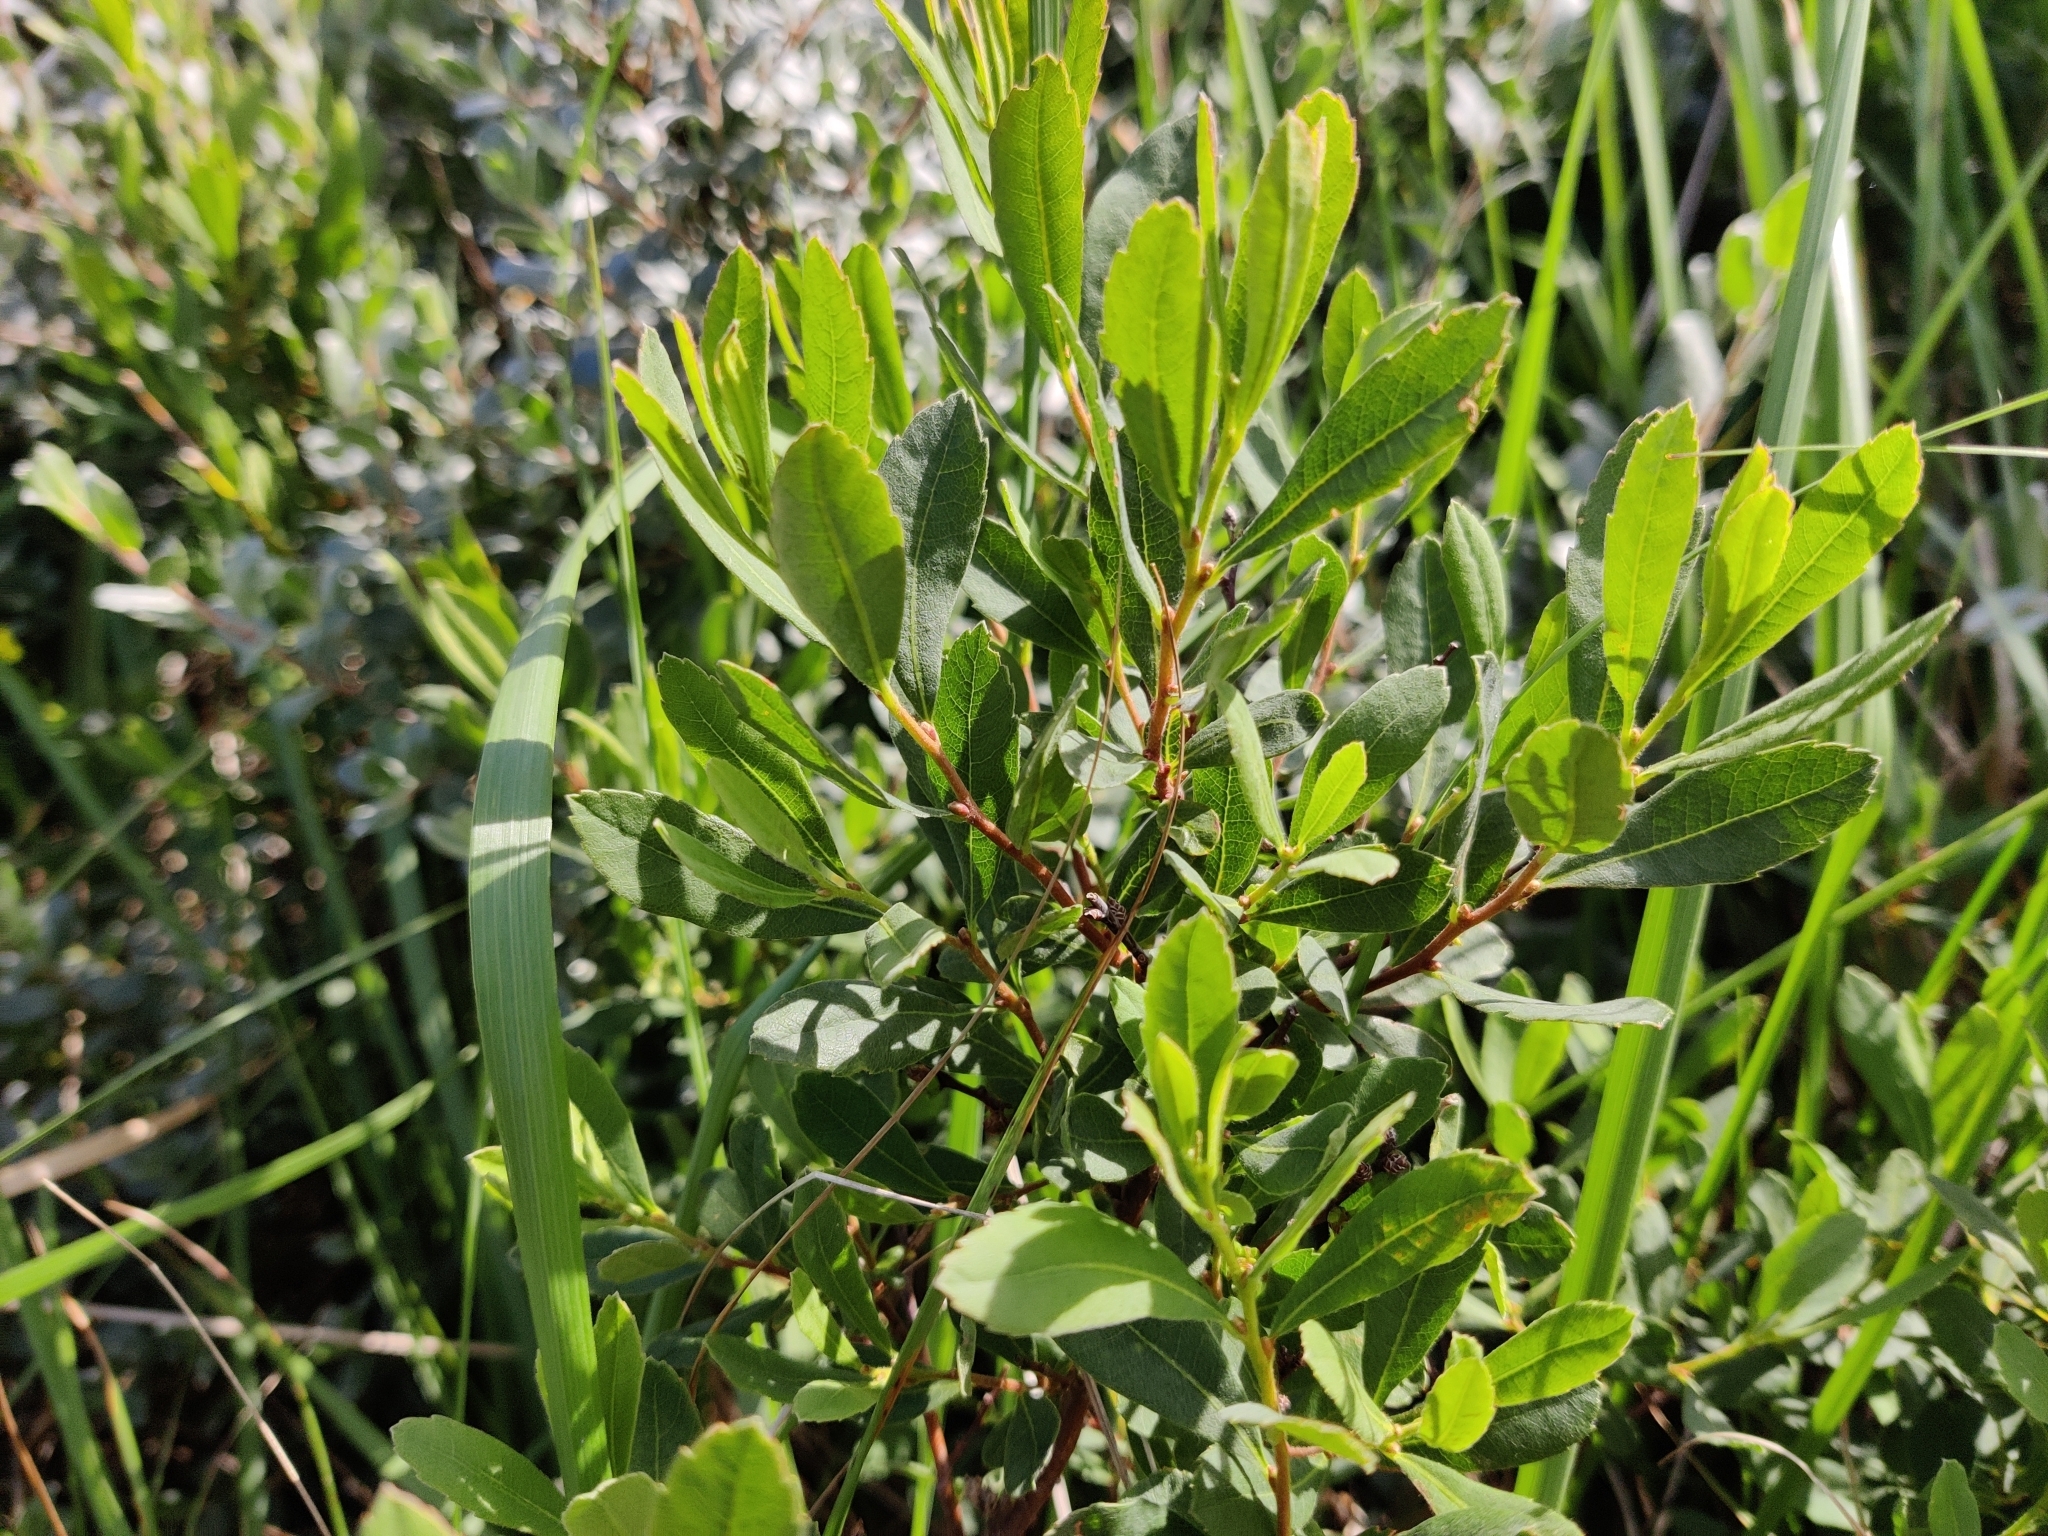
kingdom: Plantae
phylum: Tracheophyta
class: Magnoliopsida
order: Fagales
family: Myricaceae
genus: Myrica
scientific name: Myrica gale
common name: Sweet gale
